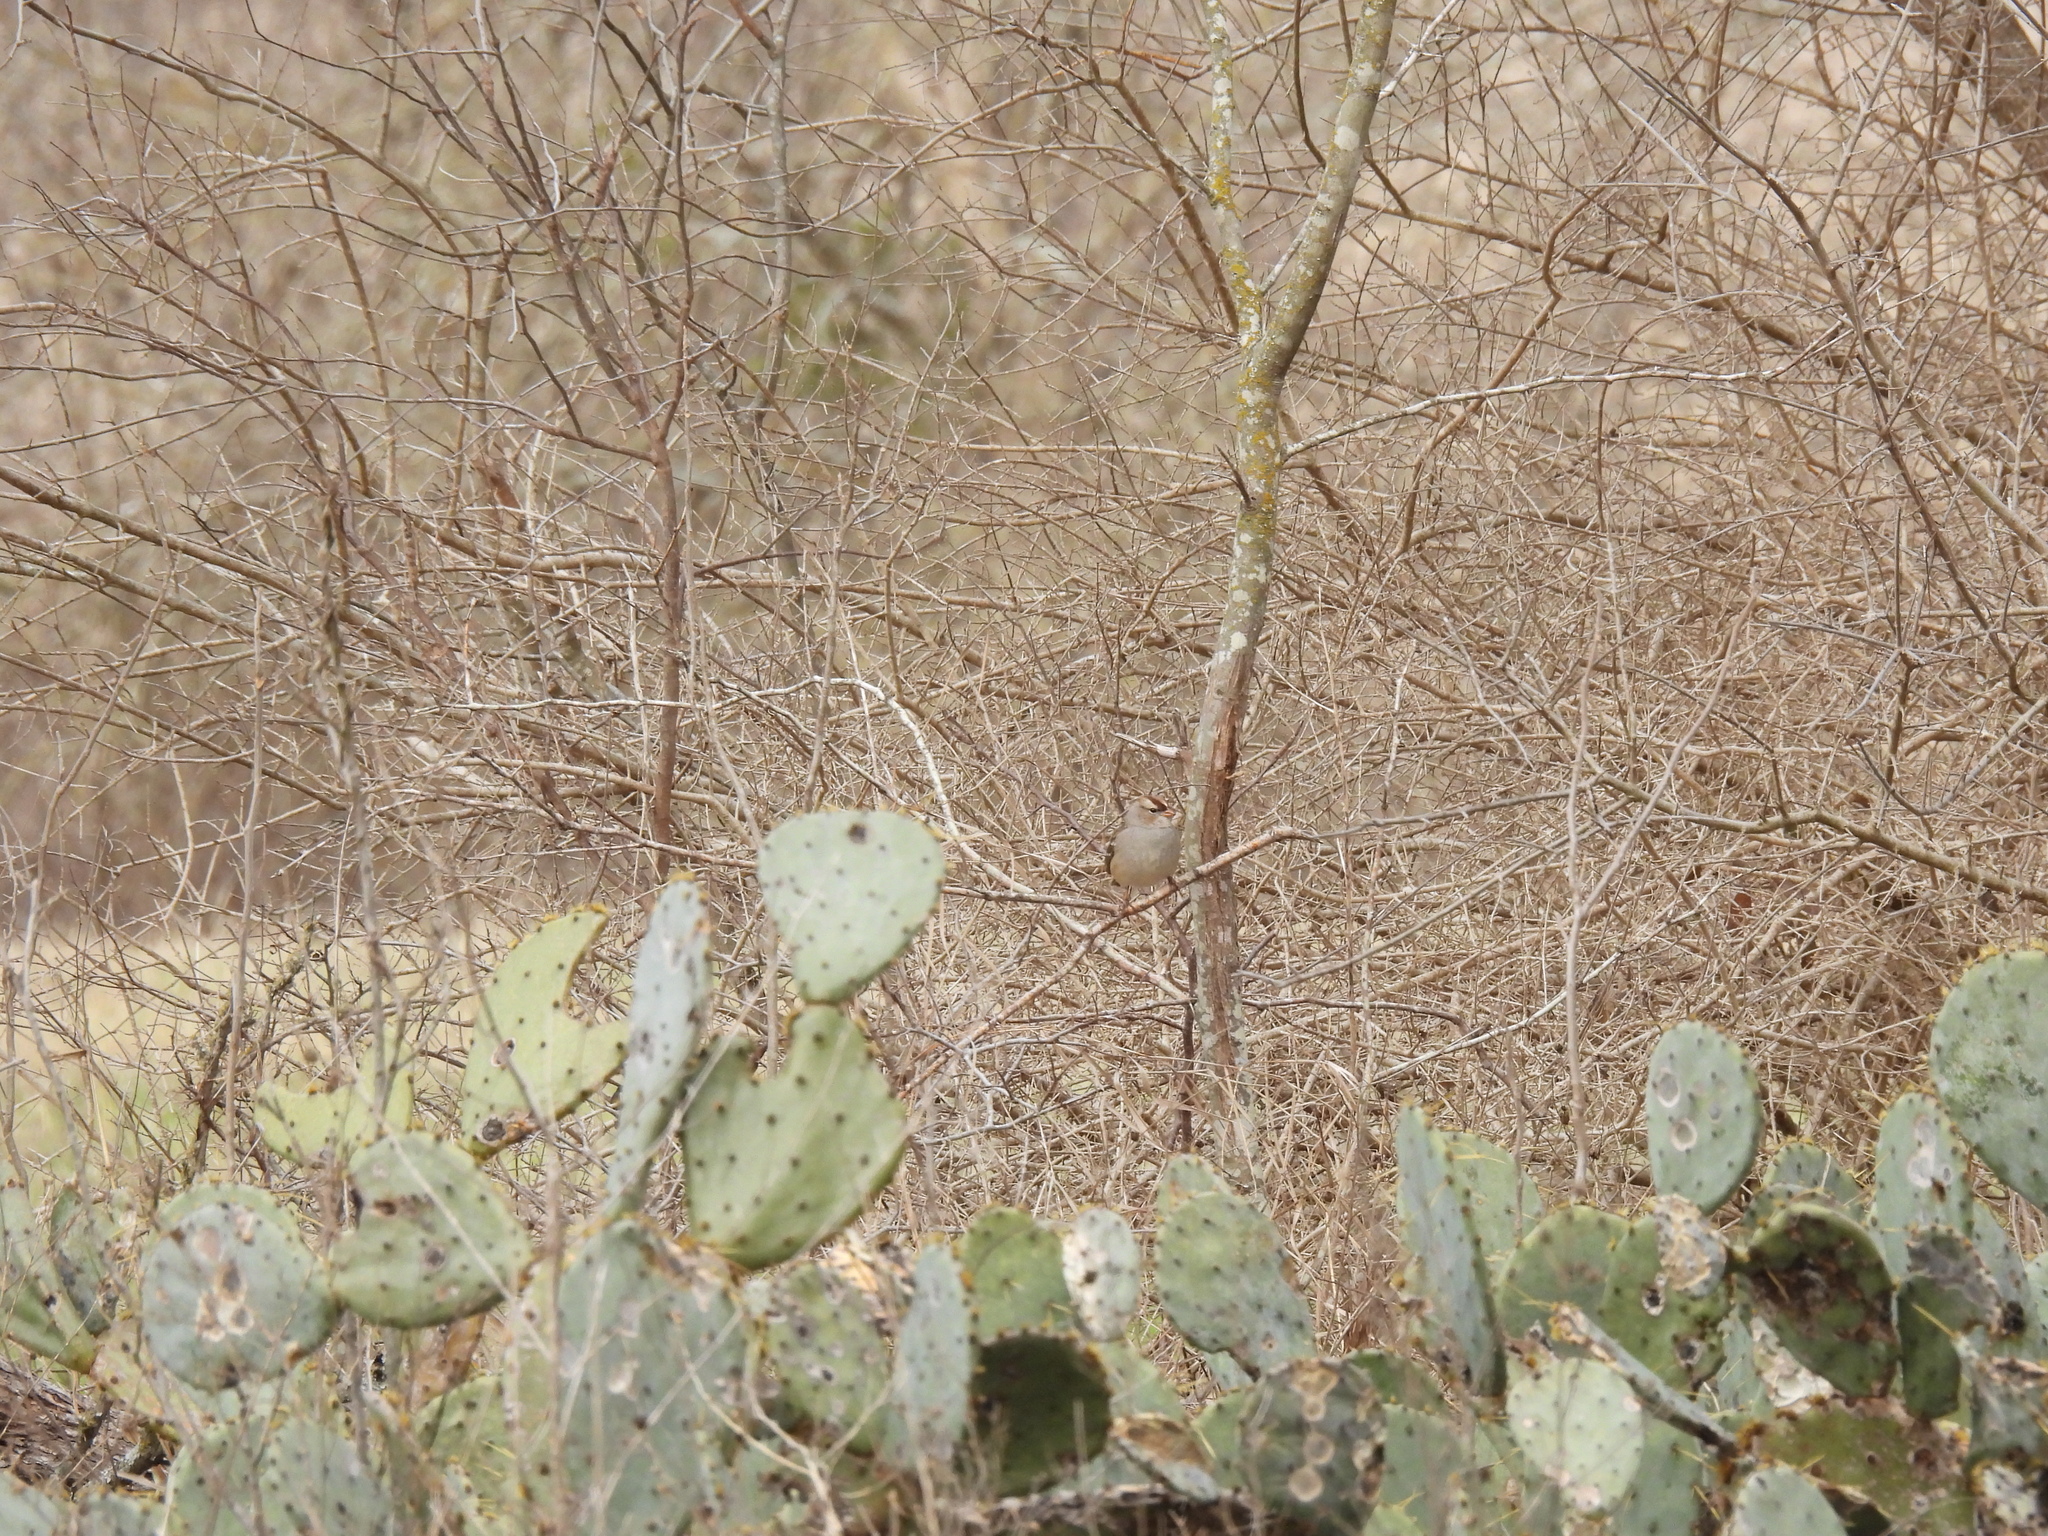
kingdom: Animalia
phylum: Chordata
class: Aves
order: Passeriformes
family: Passerellidae
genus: Zonotrichia
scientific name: Zonotrichia leucophrys
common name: White-crowned sparrow
